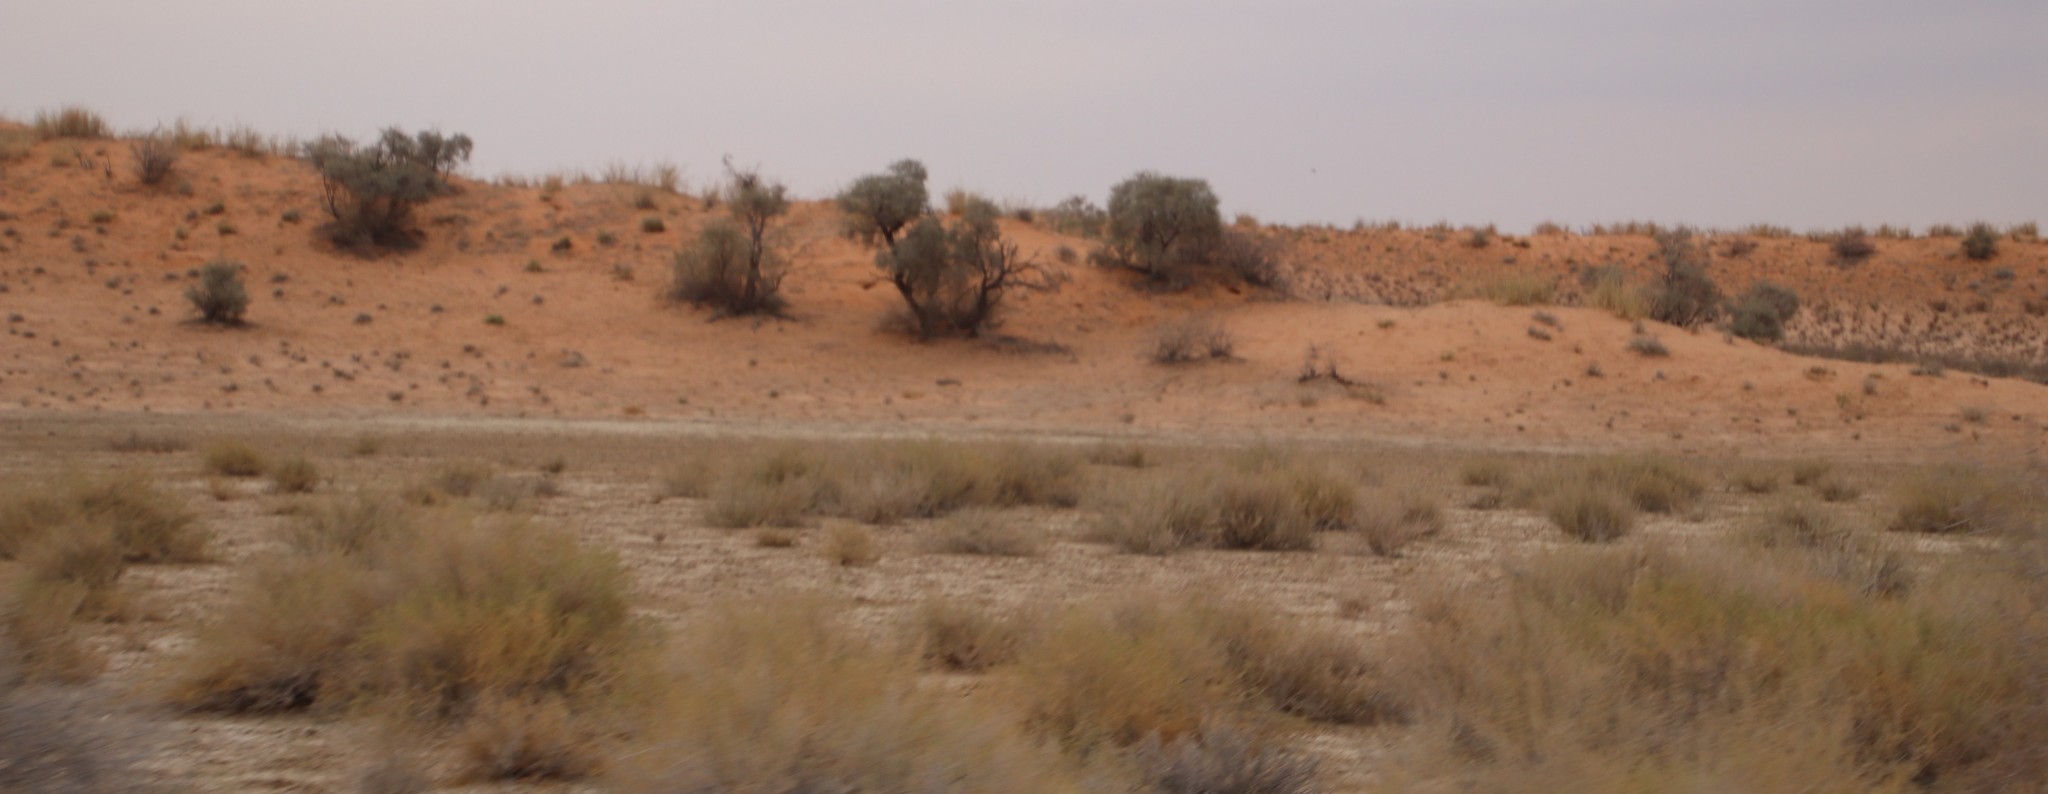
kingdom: Plantae
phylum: Tracheophyta
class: Magnoliopsida
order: Fabales
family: Fabaceae
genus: Vachellia
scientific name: Vachellia haematoxylon
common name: Grey camel thorn
